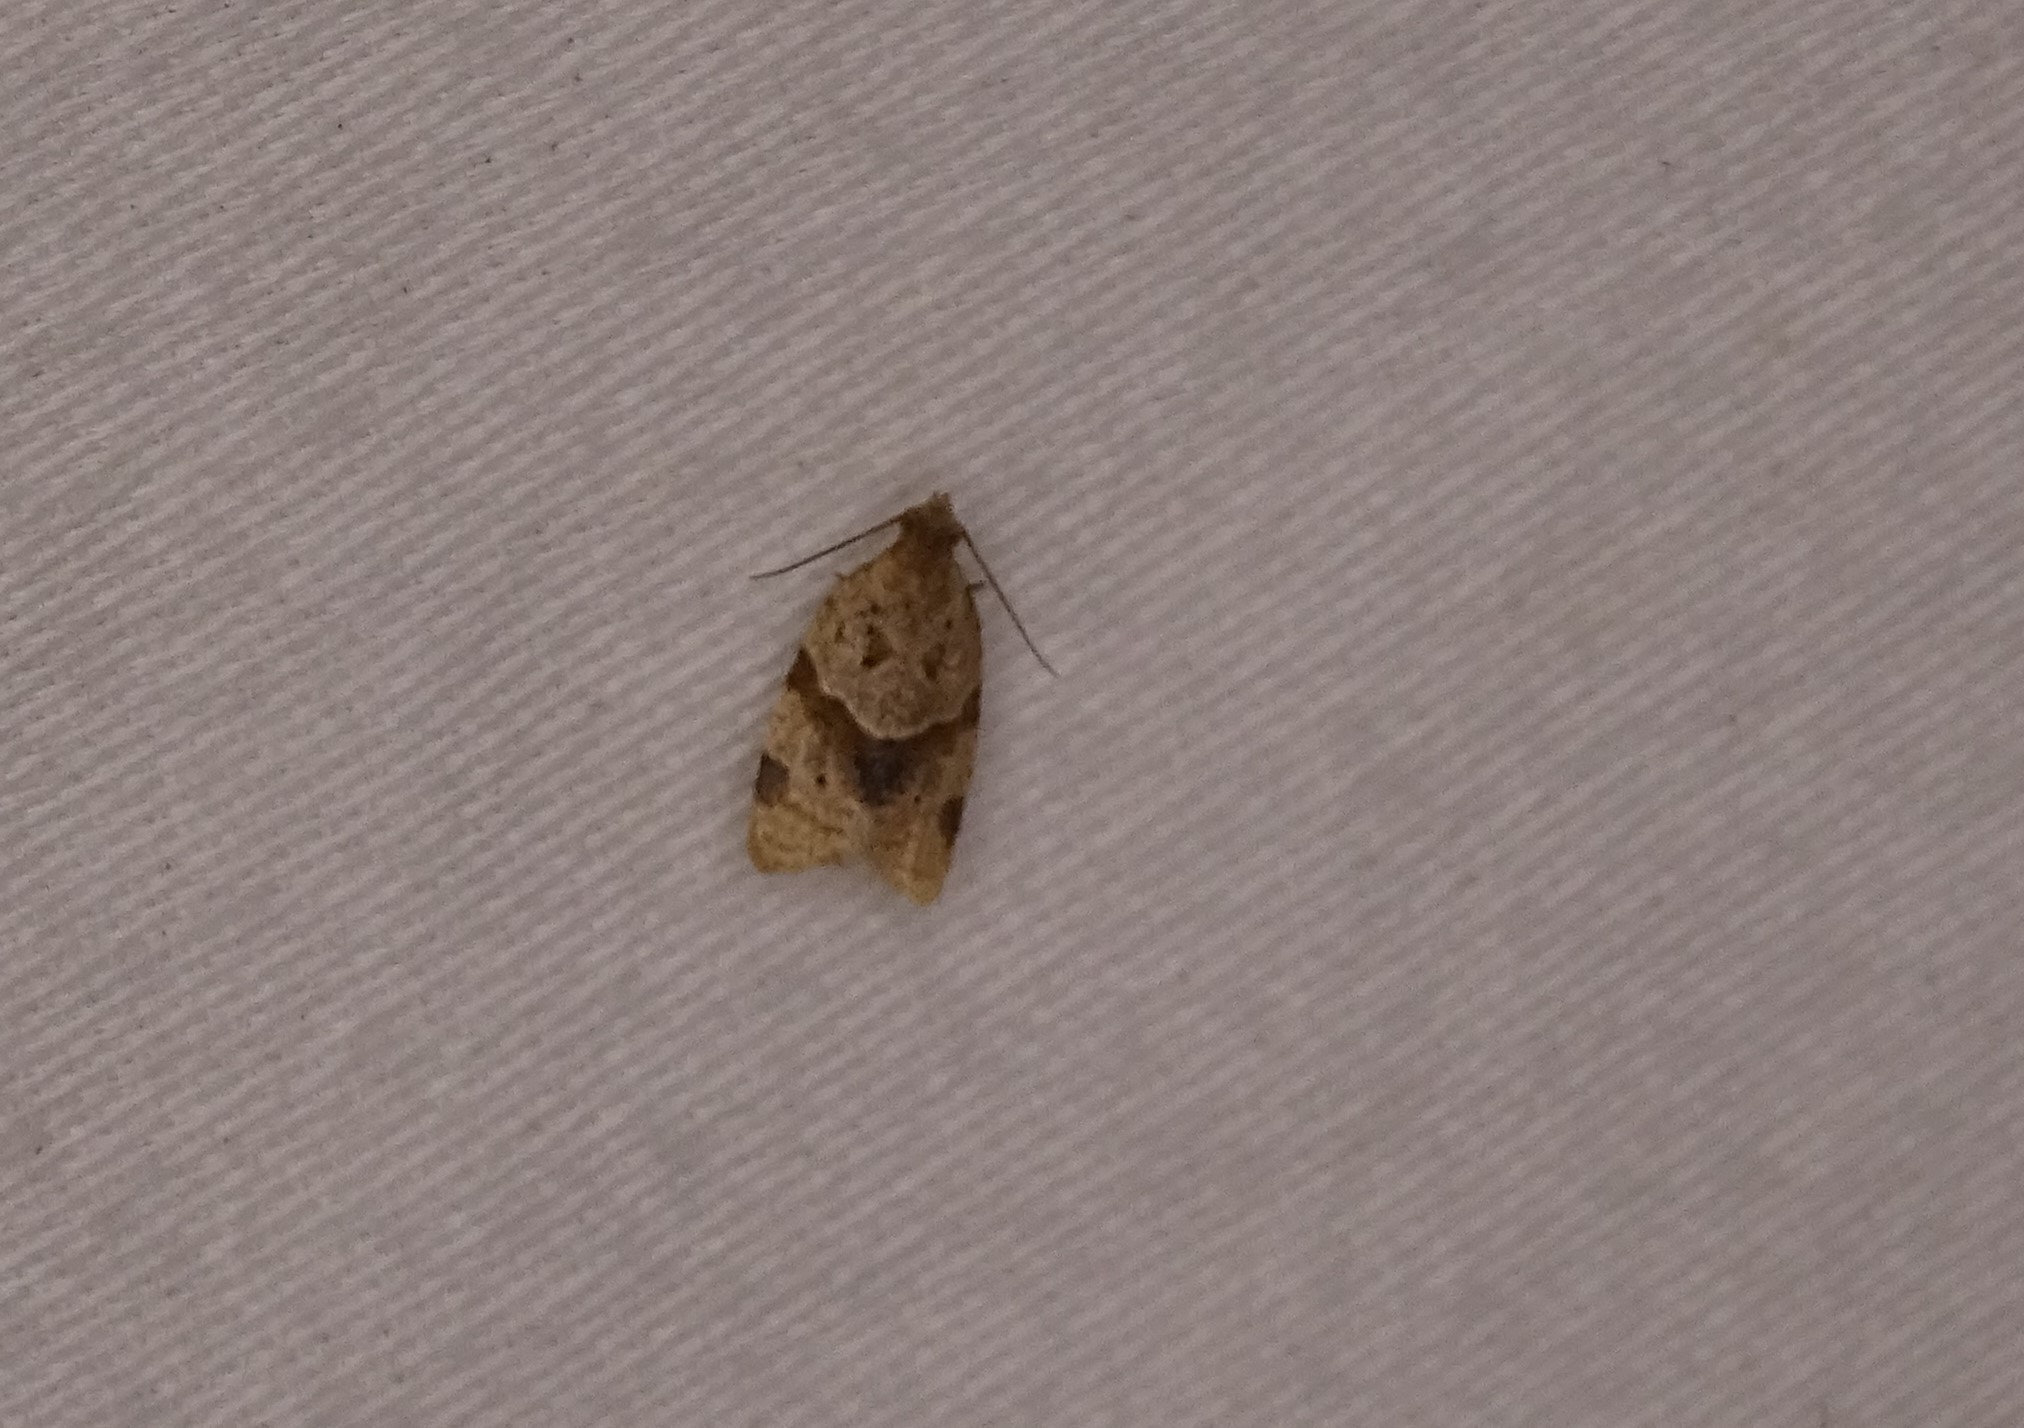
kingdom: Animalia
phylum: Arthropoda
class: Insecta
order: Lepidoptera
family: Tortricidae
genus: Clepsis
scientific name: Clepsis peritana
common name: Garden tortrix
